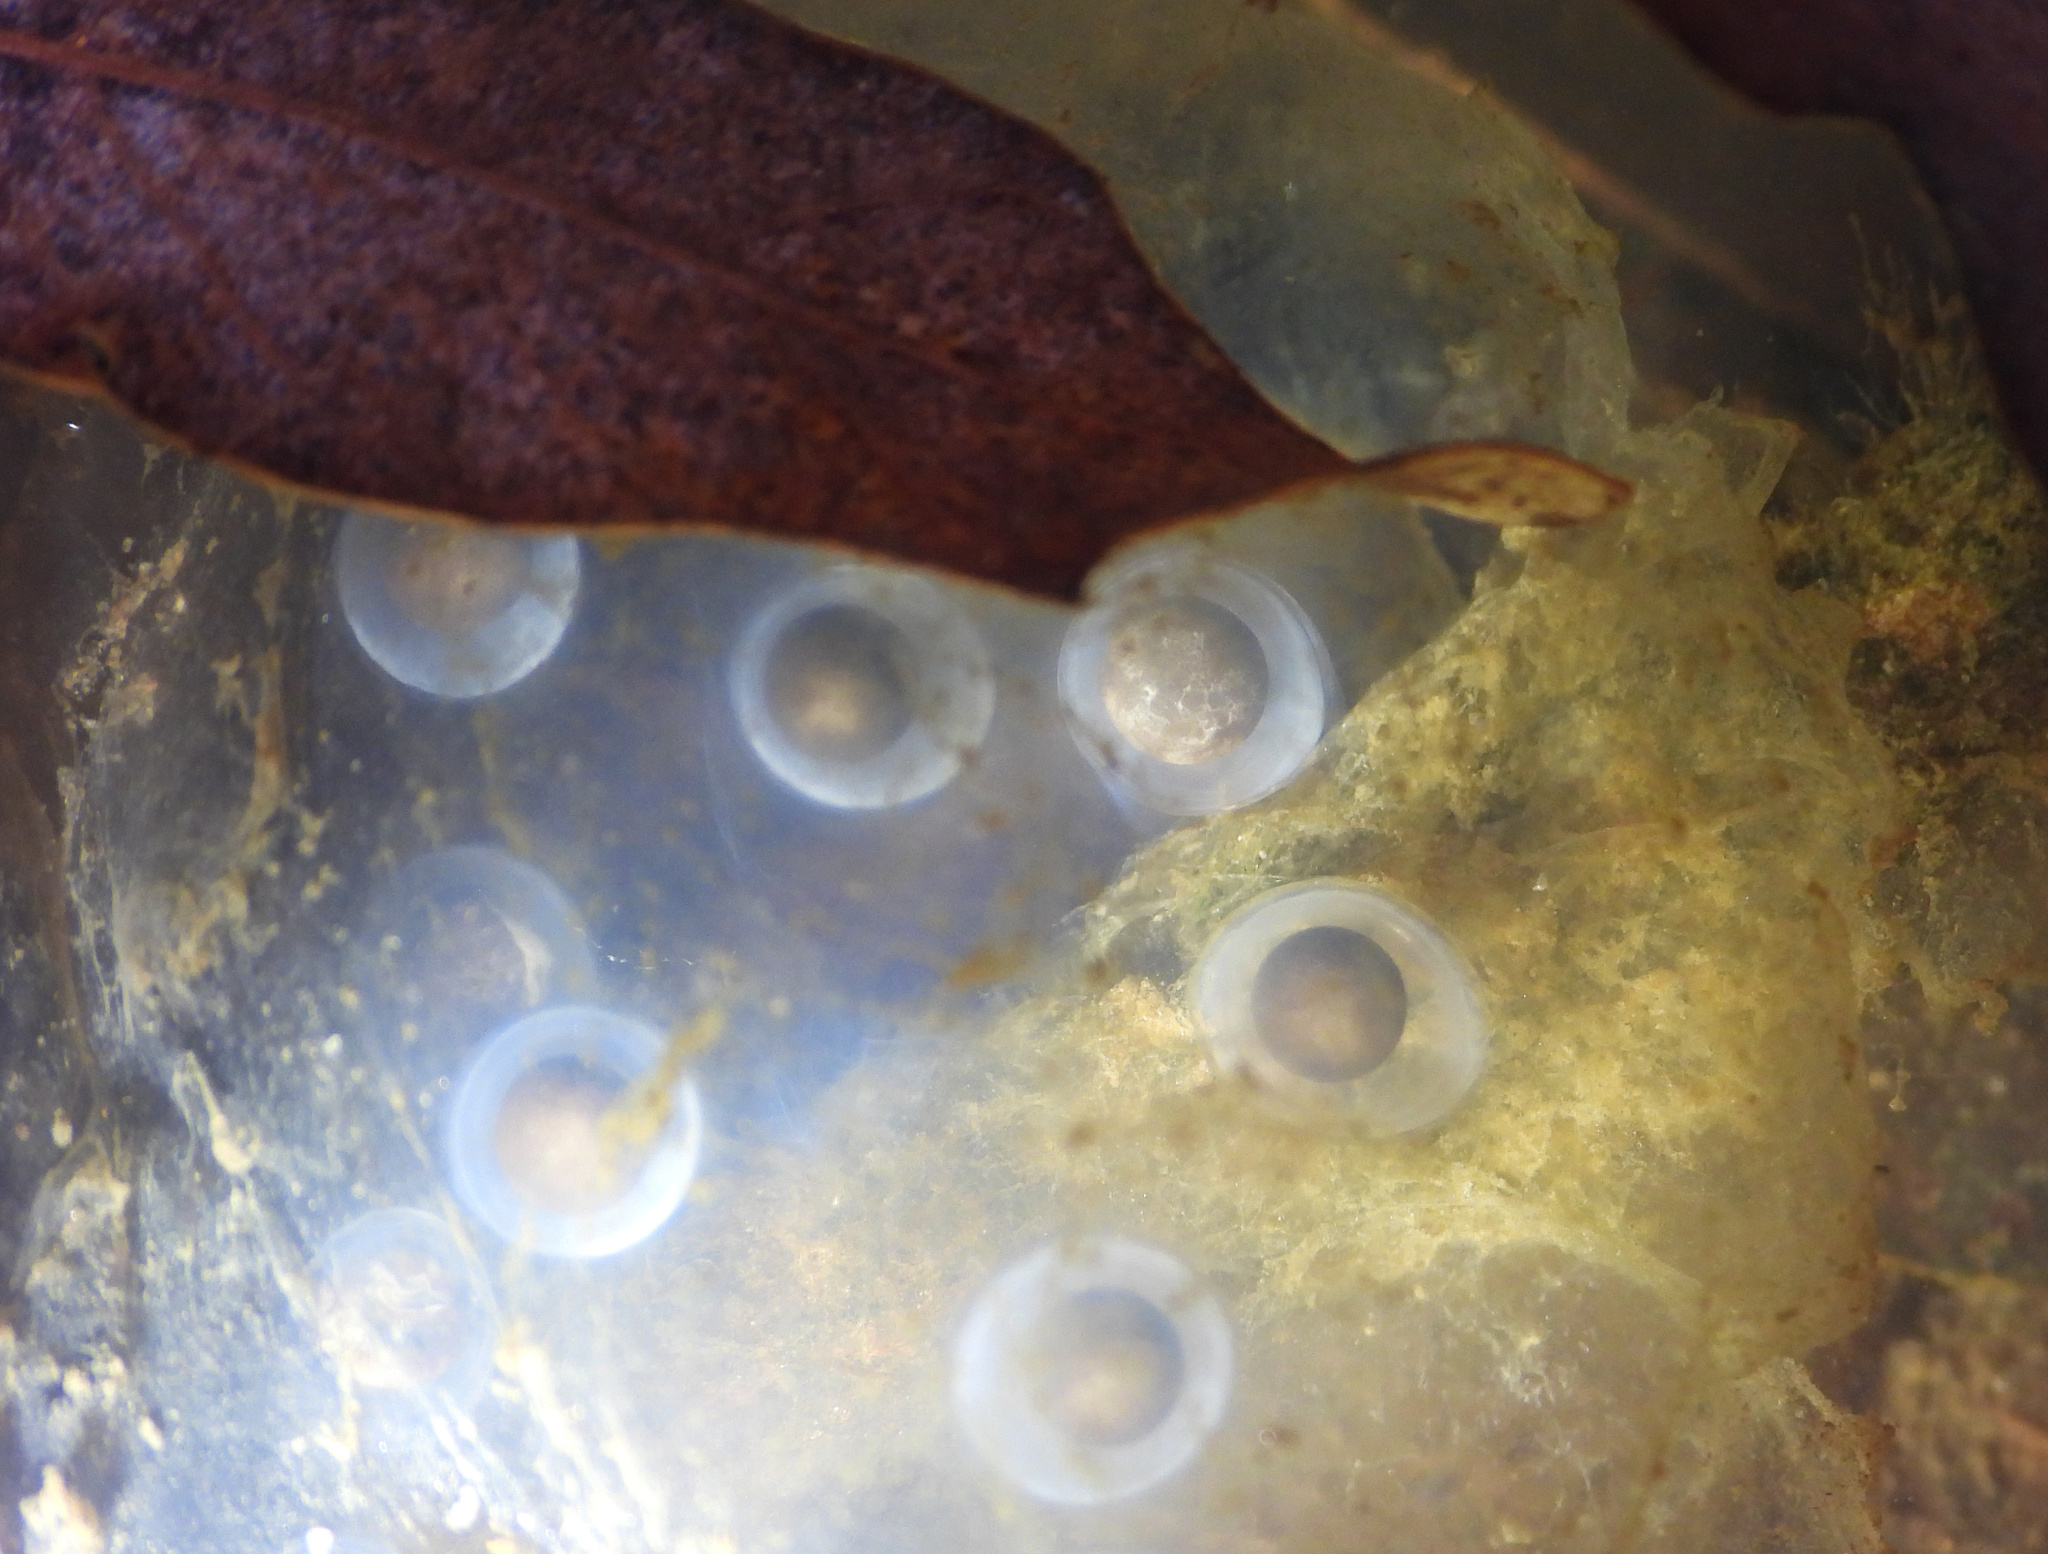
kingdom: Animalia
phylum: Chordata
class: Amphibia
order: Caudata
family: Ambystomatidae
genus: Ambystoma
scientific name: Ambystoma maculatum
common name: Spotted salamander
